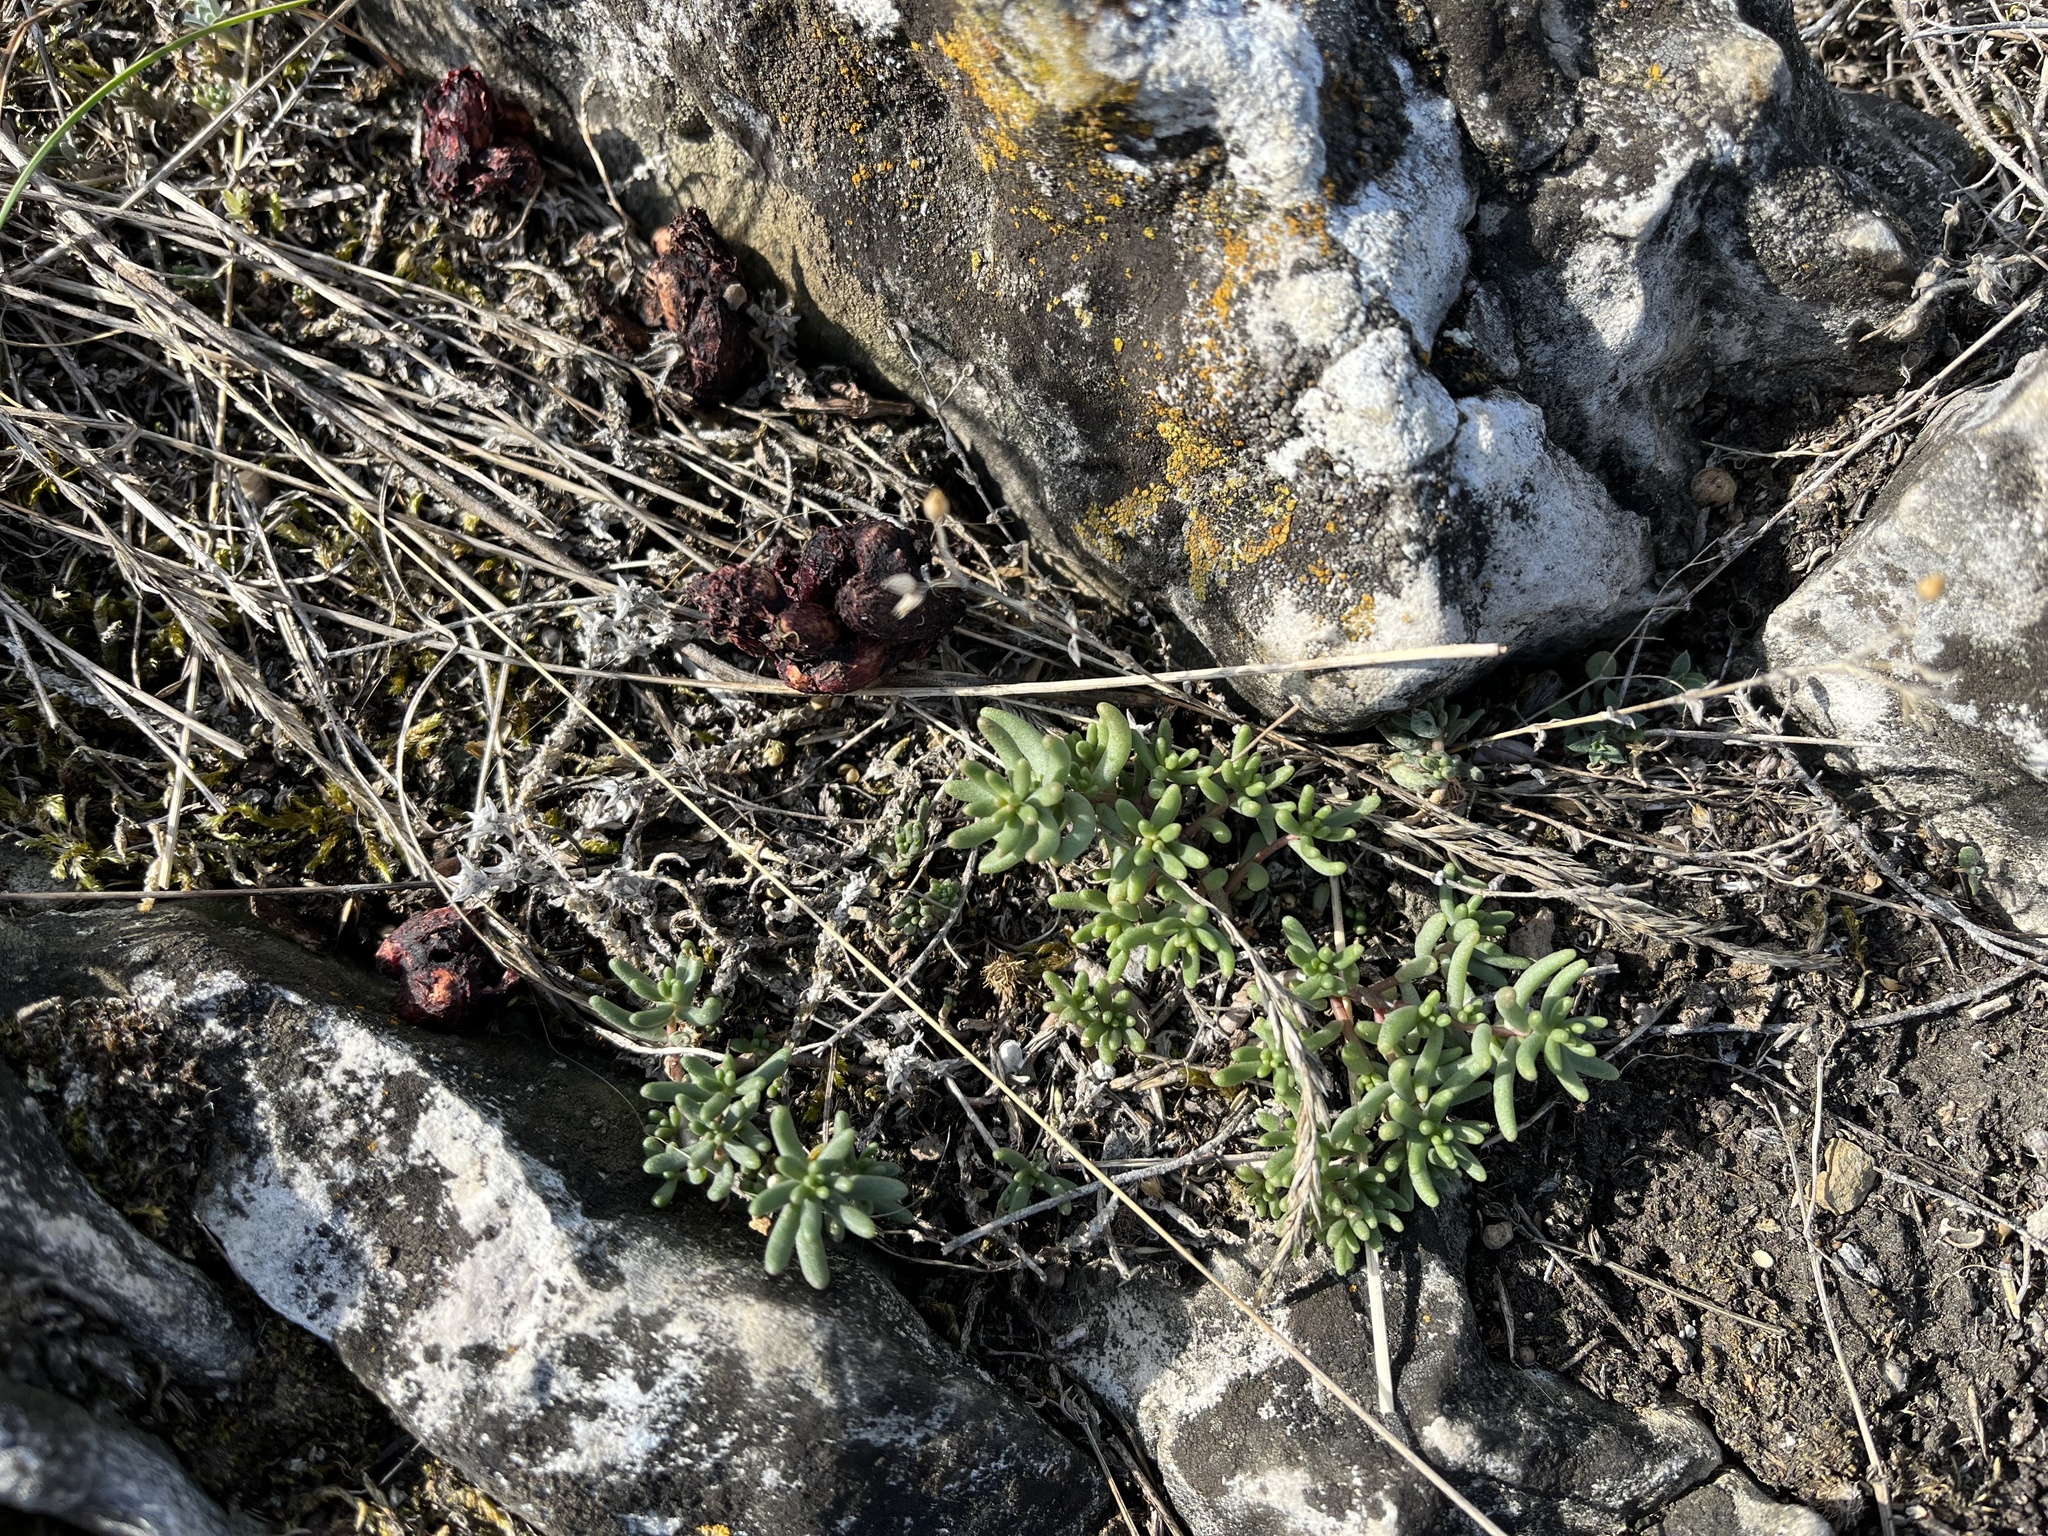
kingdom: Plantae
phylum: Tracheophyta
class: Magnoliopsida
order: Saxifragales
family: Crassulaceae
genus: Sedum
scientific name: Sedum album
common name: White stonecrop
